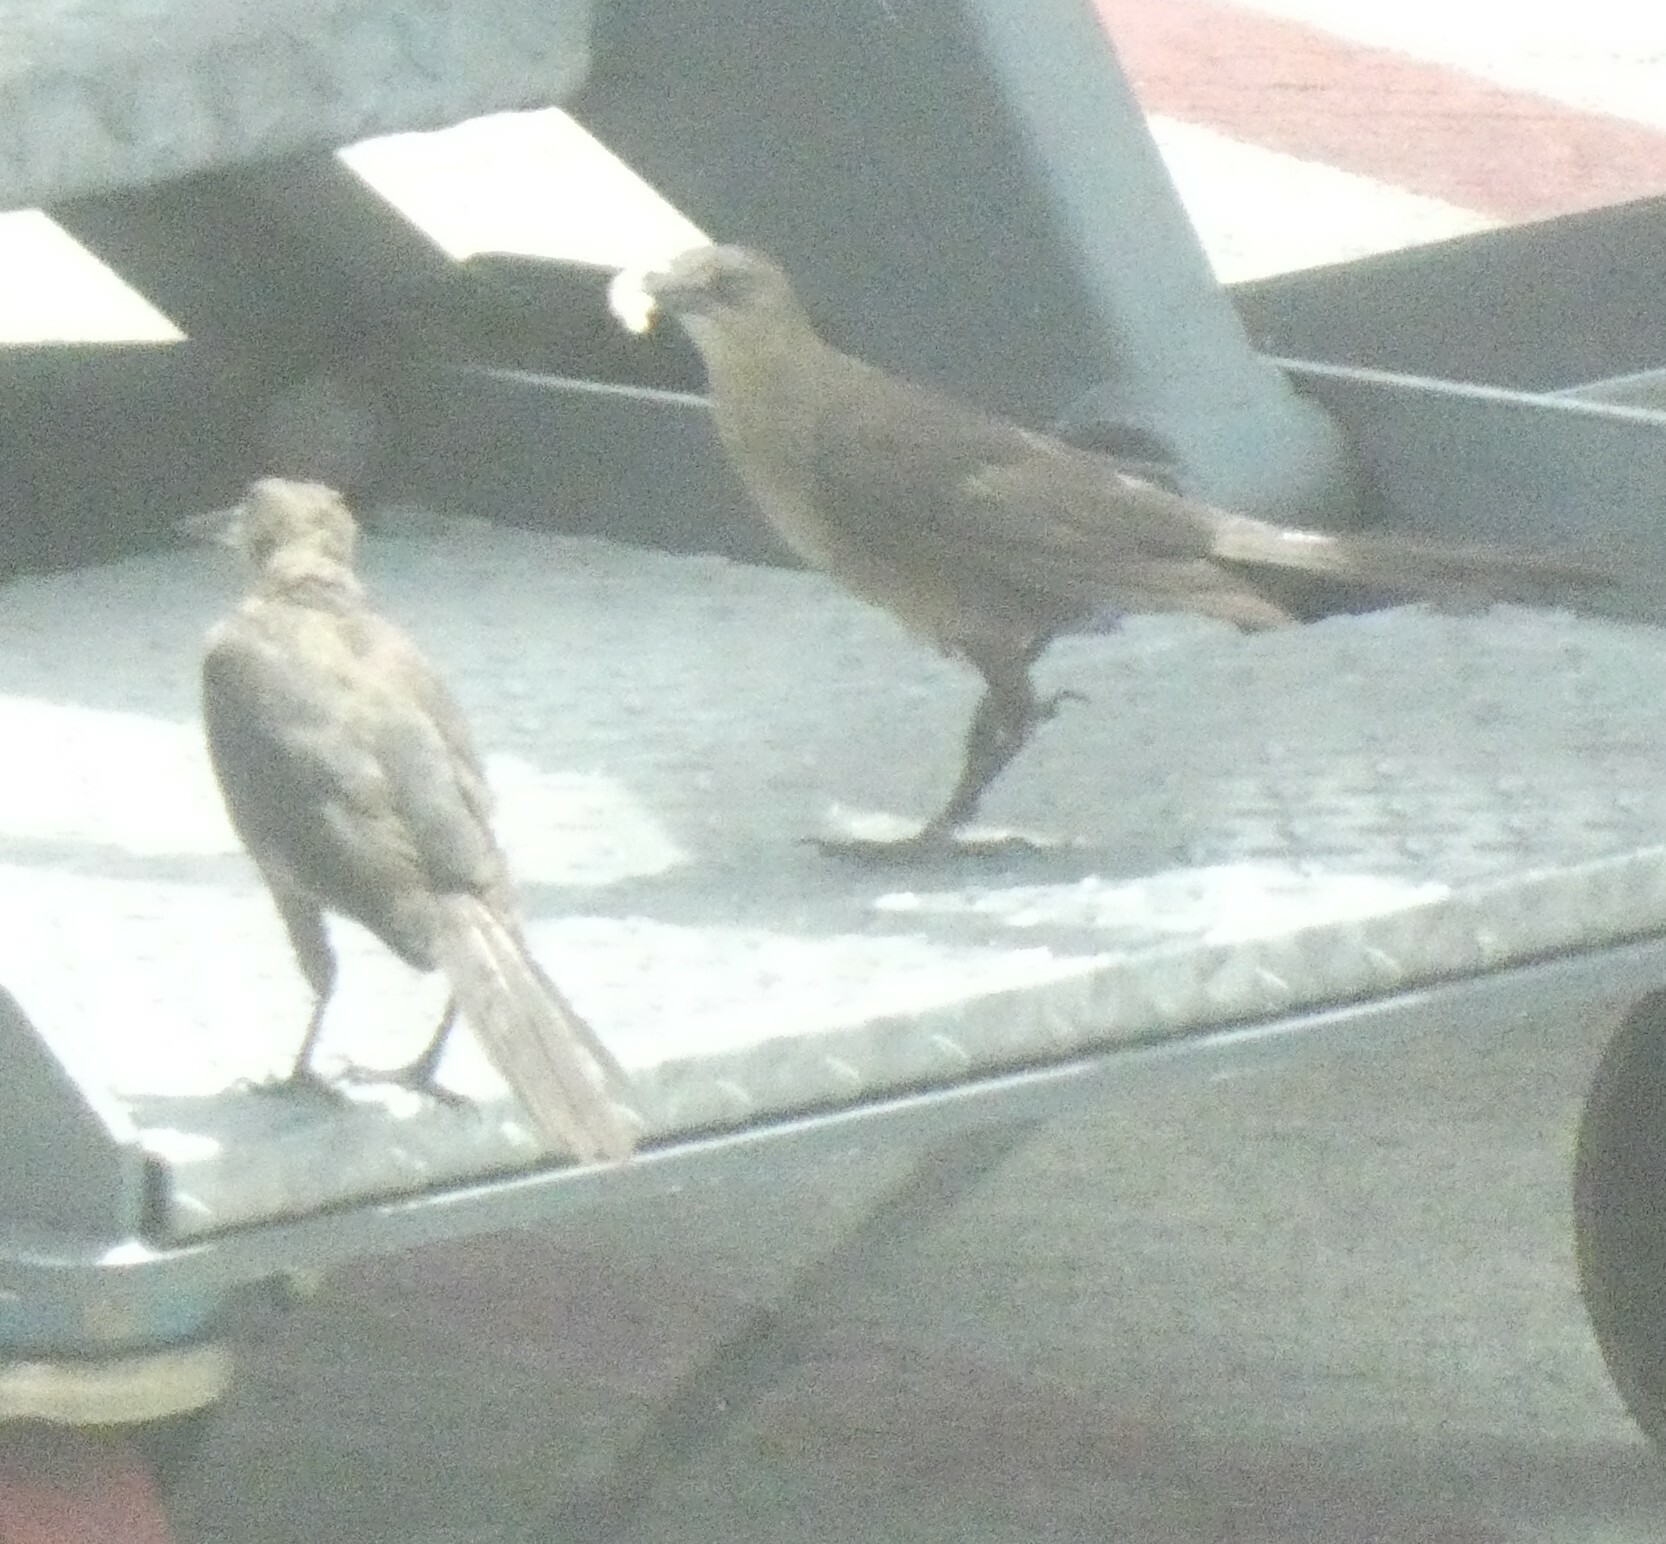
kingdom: Animalia
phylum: Chordata
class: Aves
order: Passeriformes
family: Icteridae
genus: Quiscalus
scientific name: Quiscalus mexicanus
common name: Great-tailed grackle
